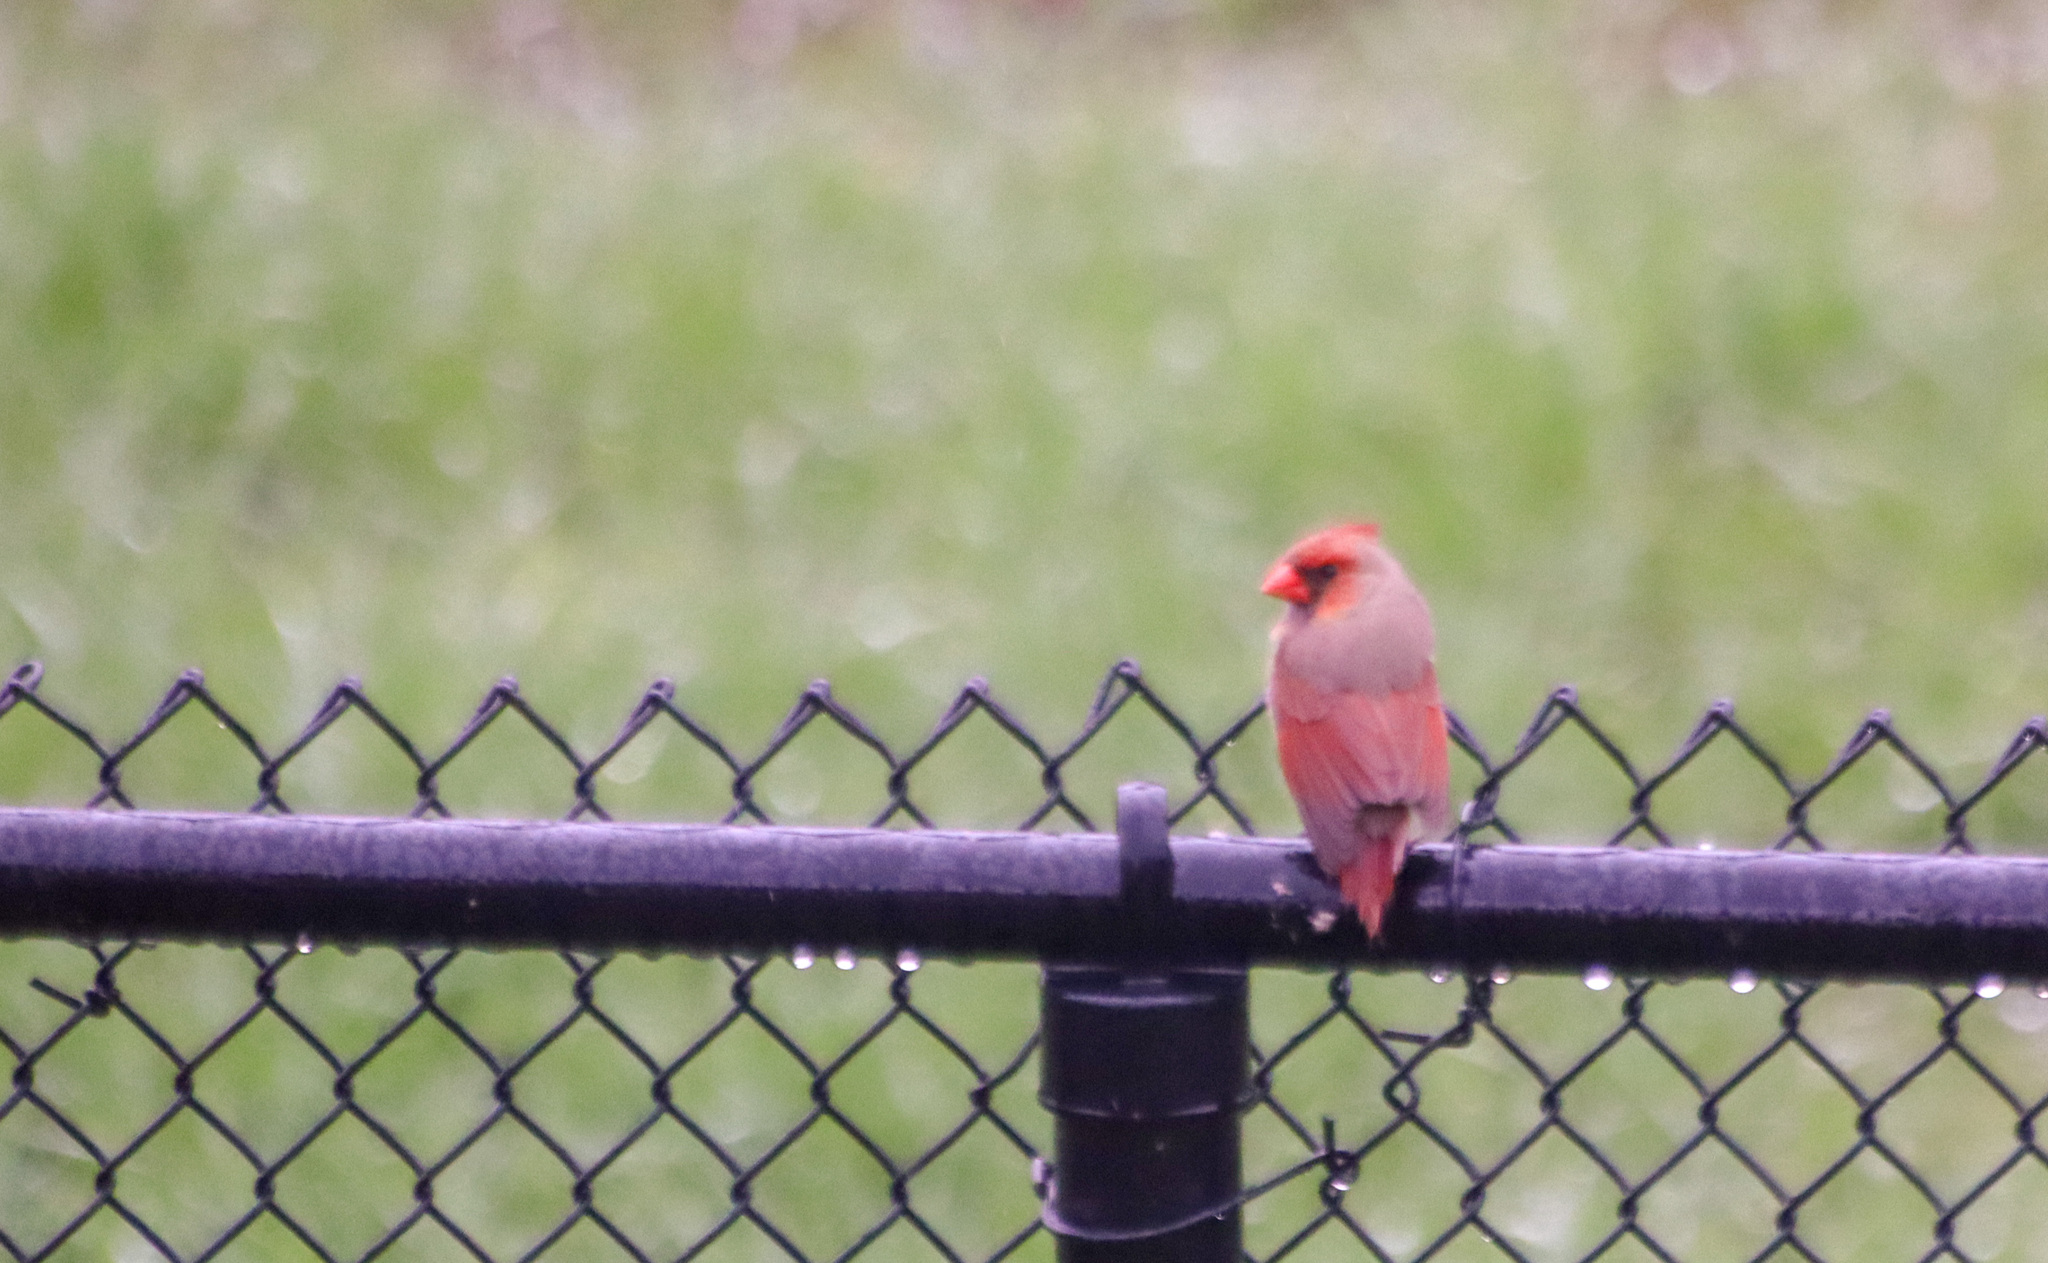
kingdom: Animalia
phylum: Chordata
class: Aves
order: Passeriformes
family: Cardinalidae
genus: Cardinalis
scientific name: Cardinalis cardinalis
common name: Northern cardinal
